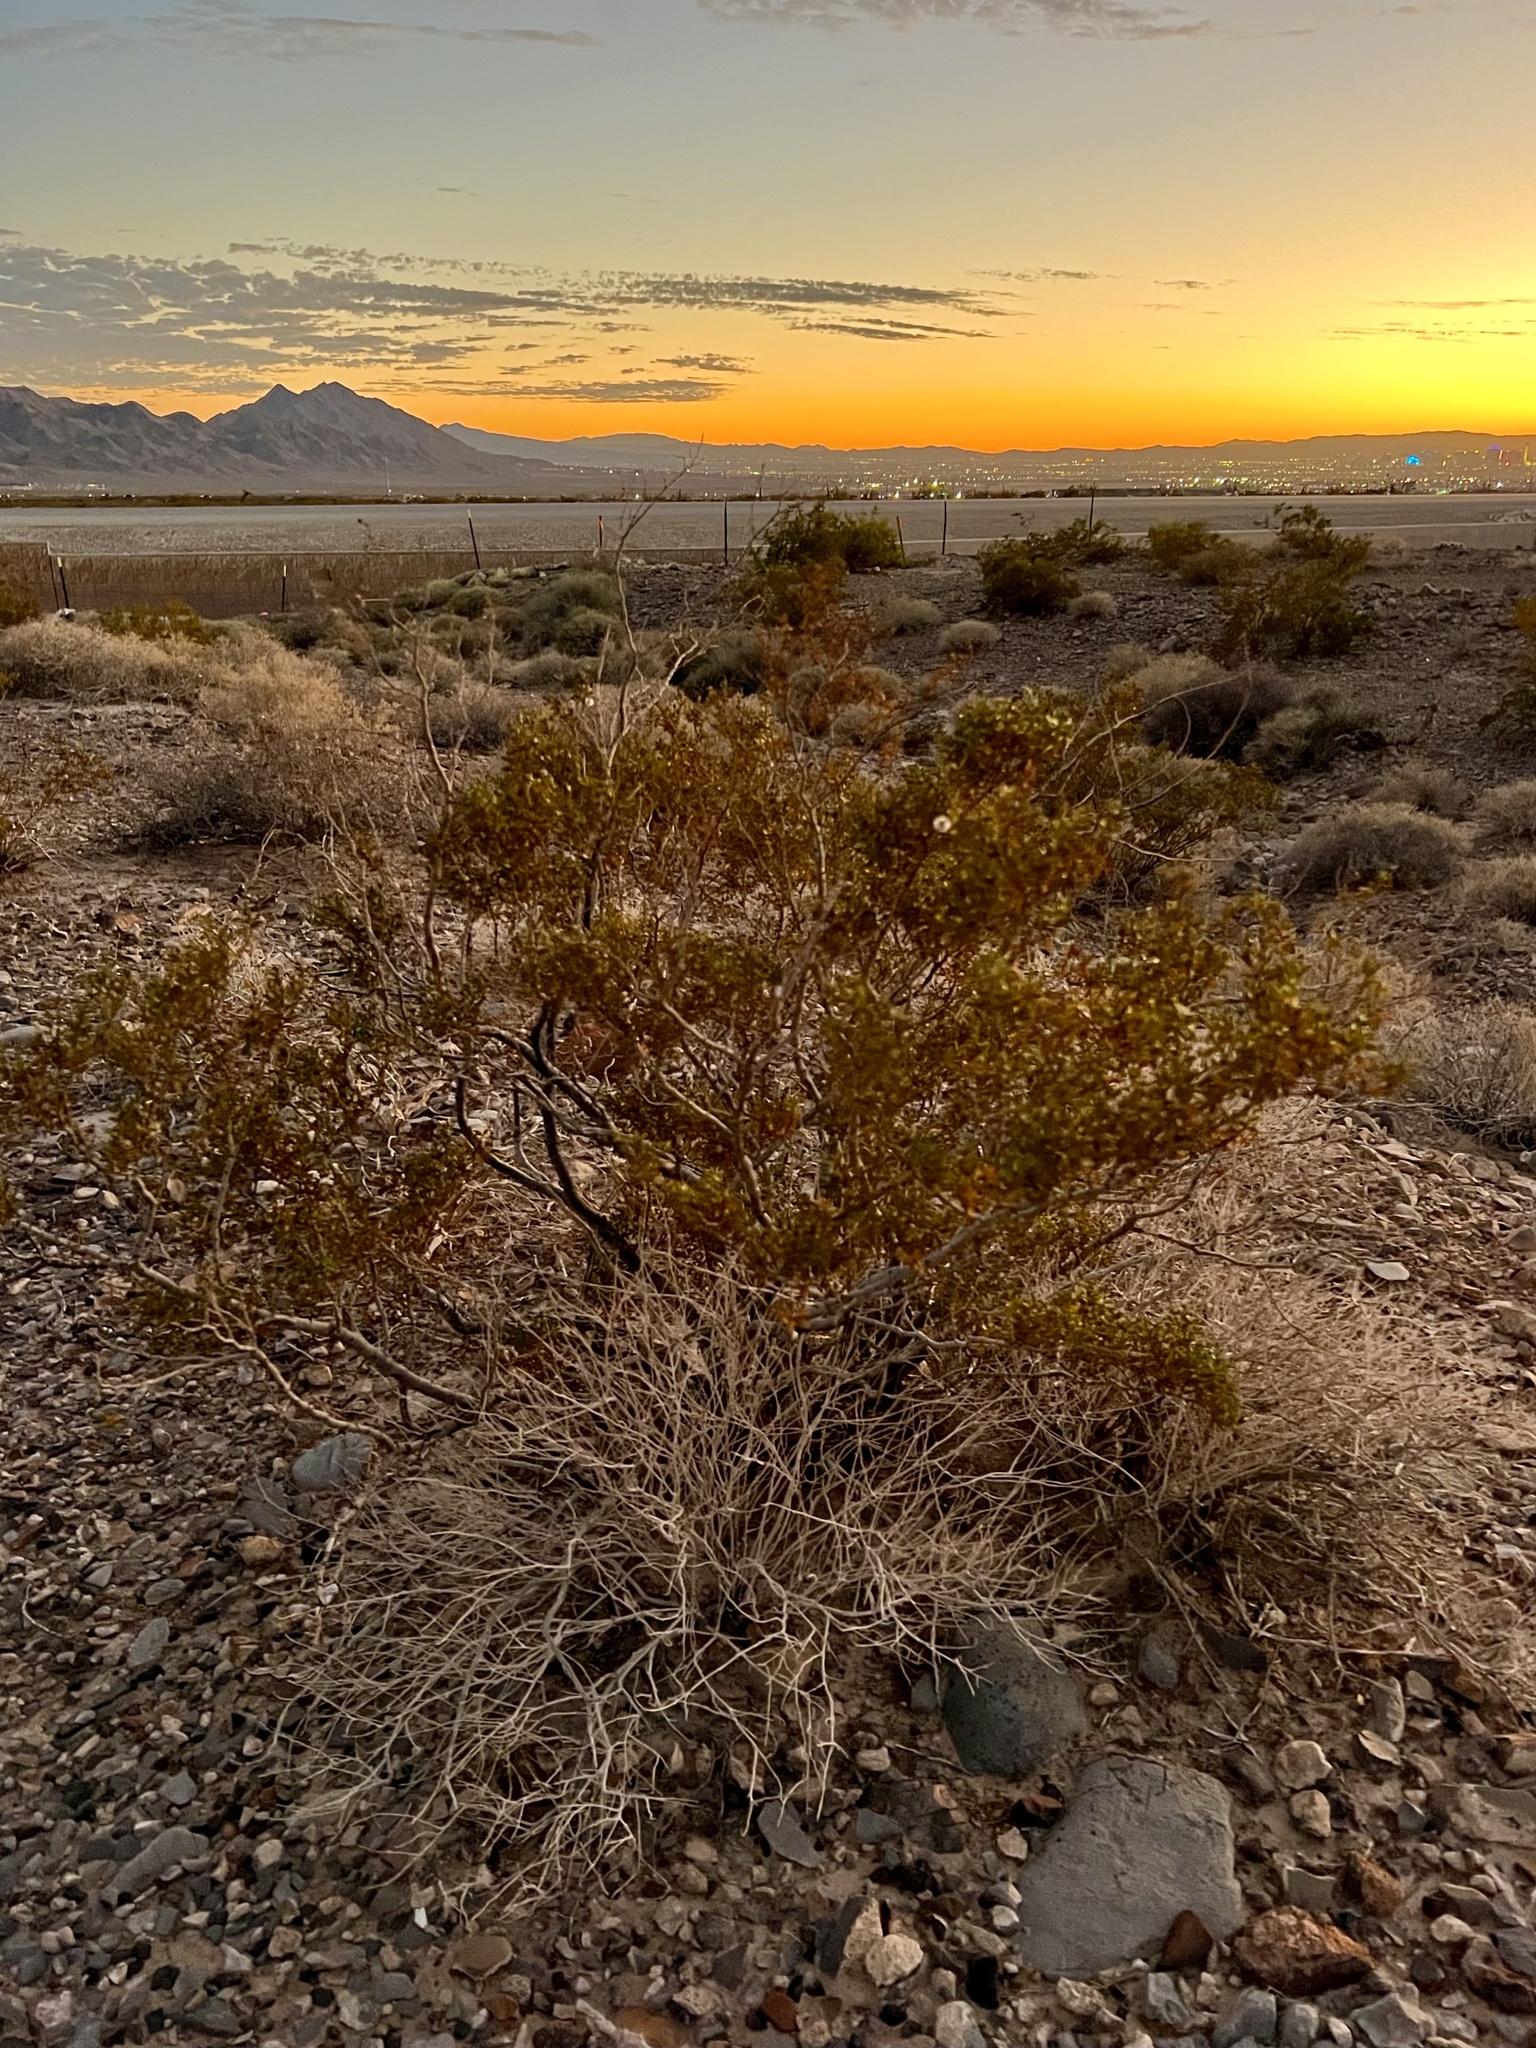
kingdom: Plantae
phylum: Tracheophyta
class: Magnoliopsida
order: Zygophyllales
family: Zygophyllaceae
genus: Larrea
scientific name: Larrea tridentata
